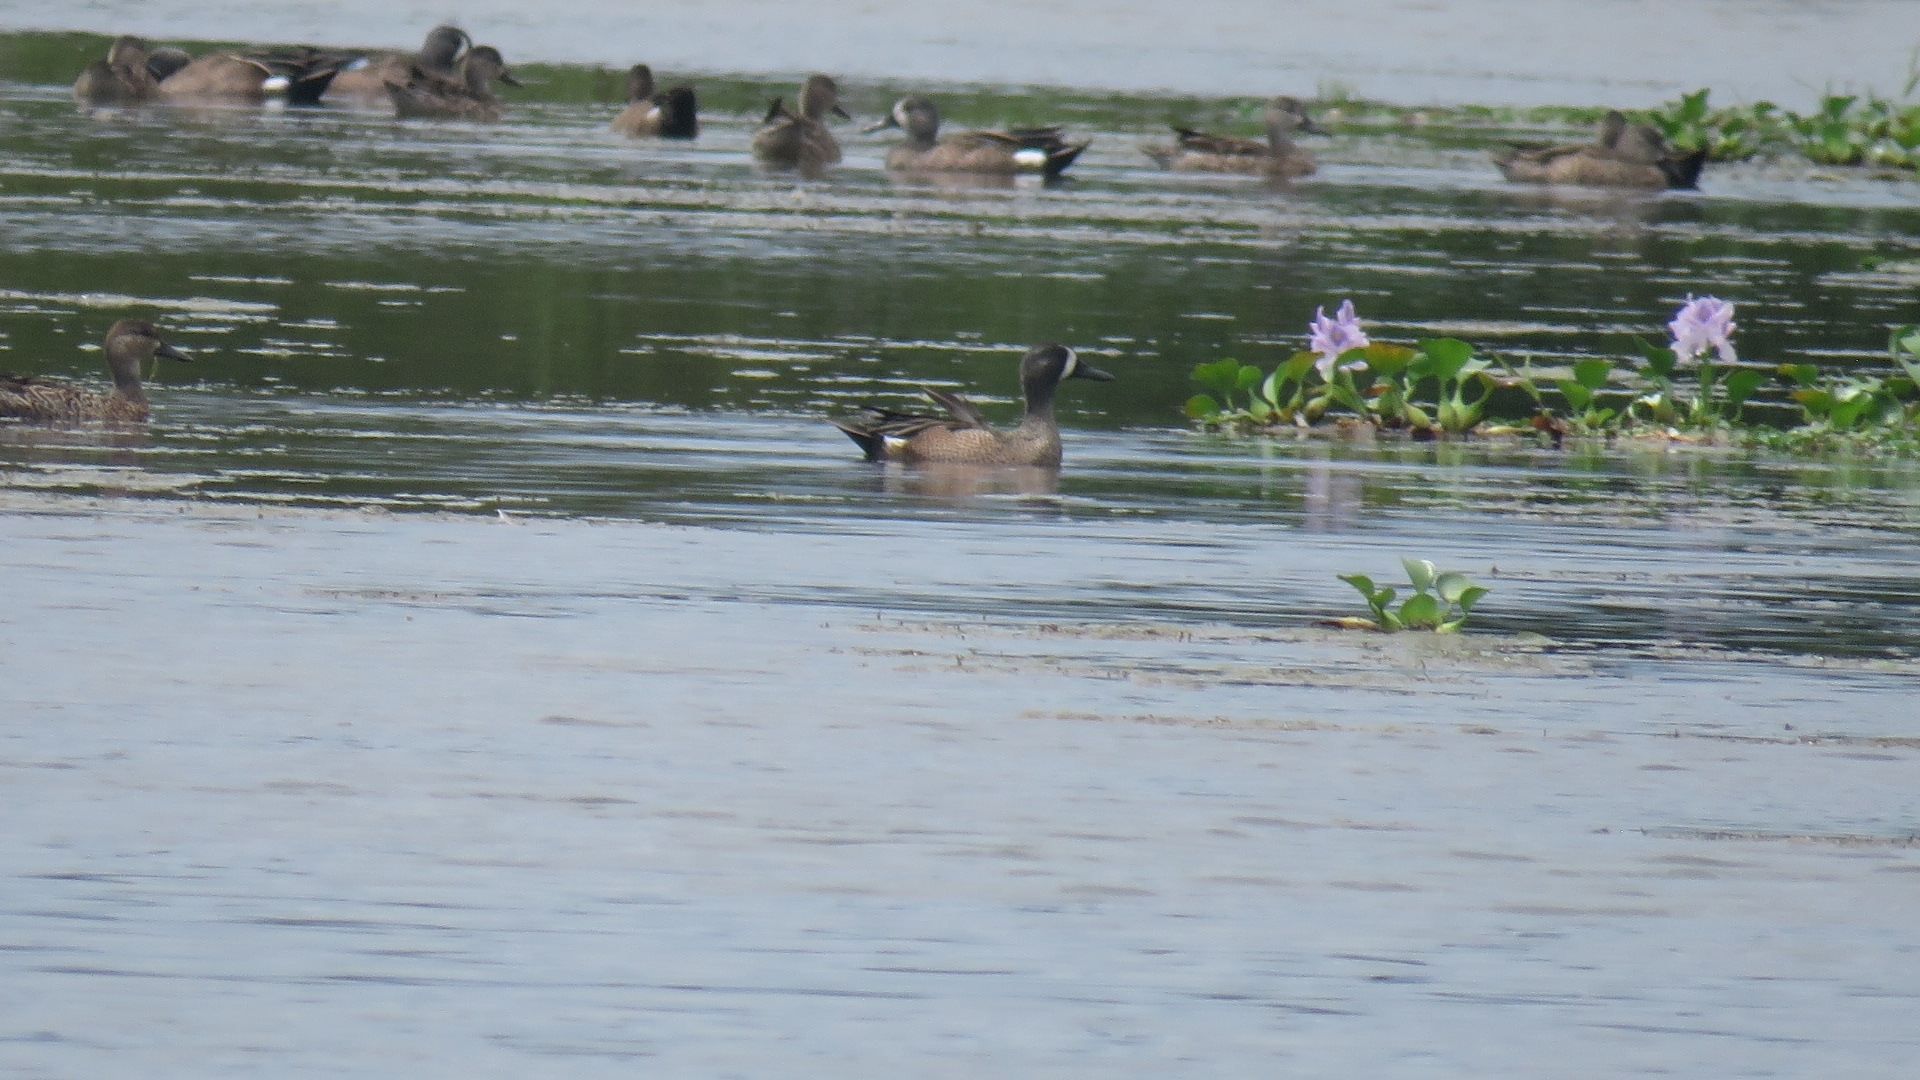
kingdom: Animalia
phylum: Chordata
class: Aves
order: Anseriformes
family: Anatidae
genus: Spatula
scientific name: Spatula discors
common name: Blue-winged teal
